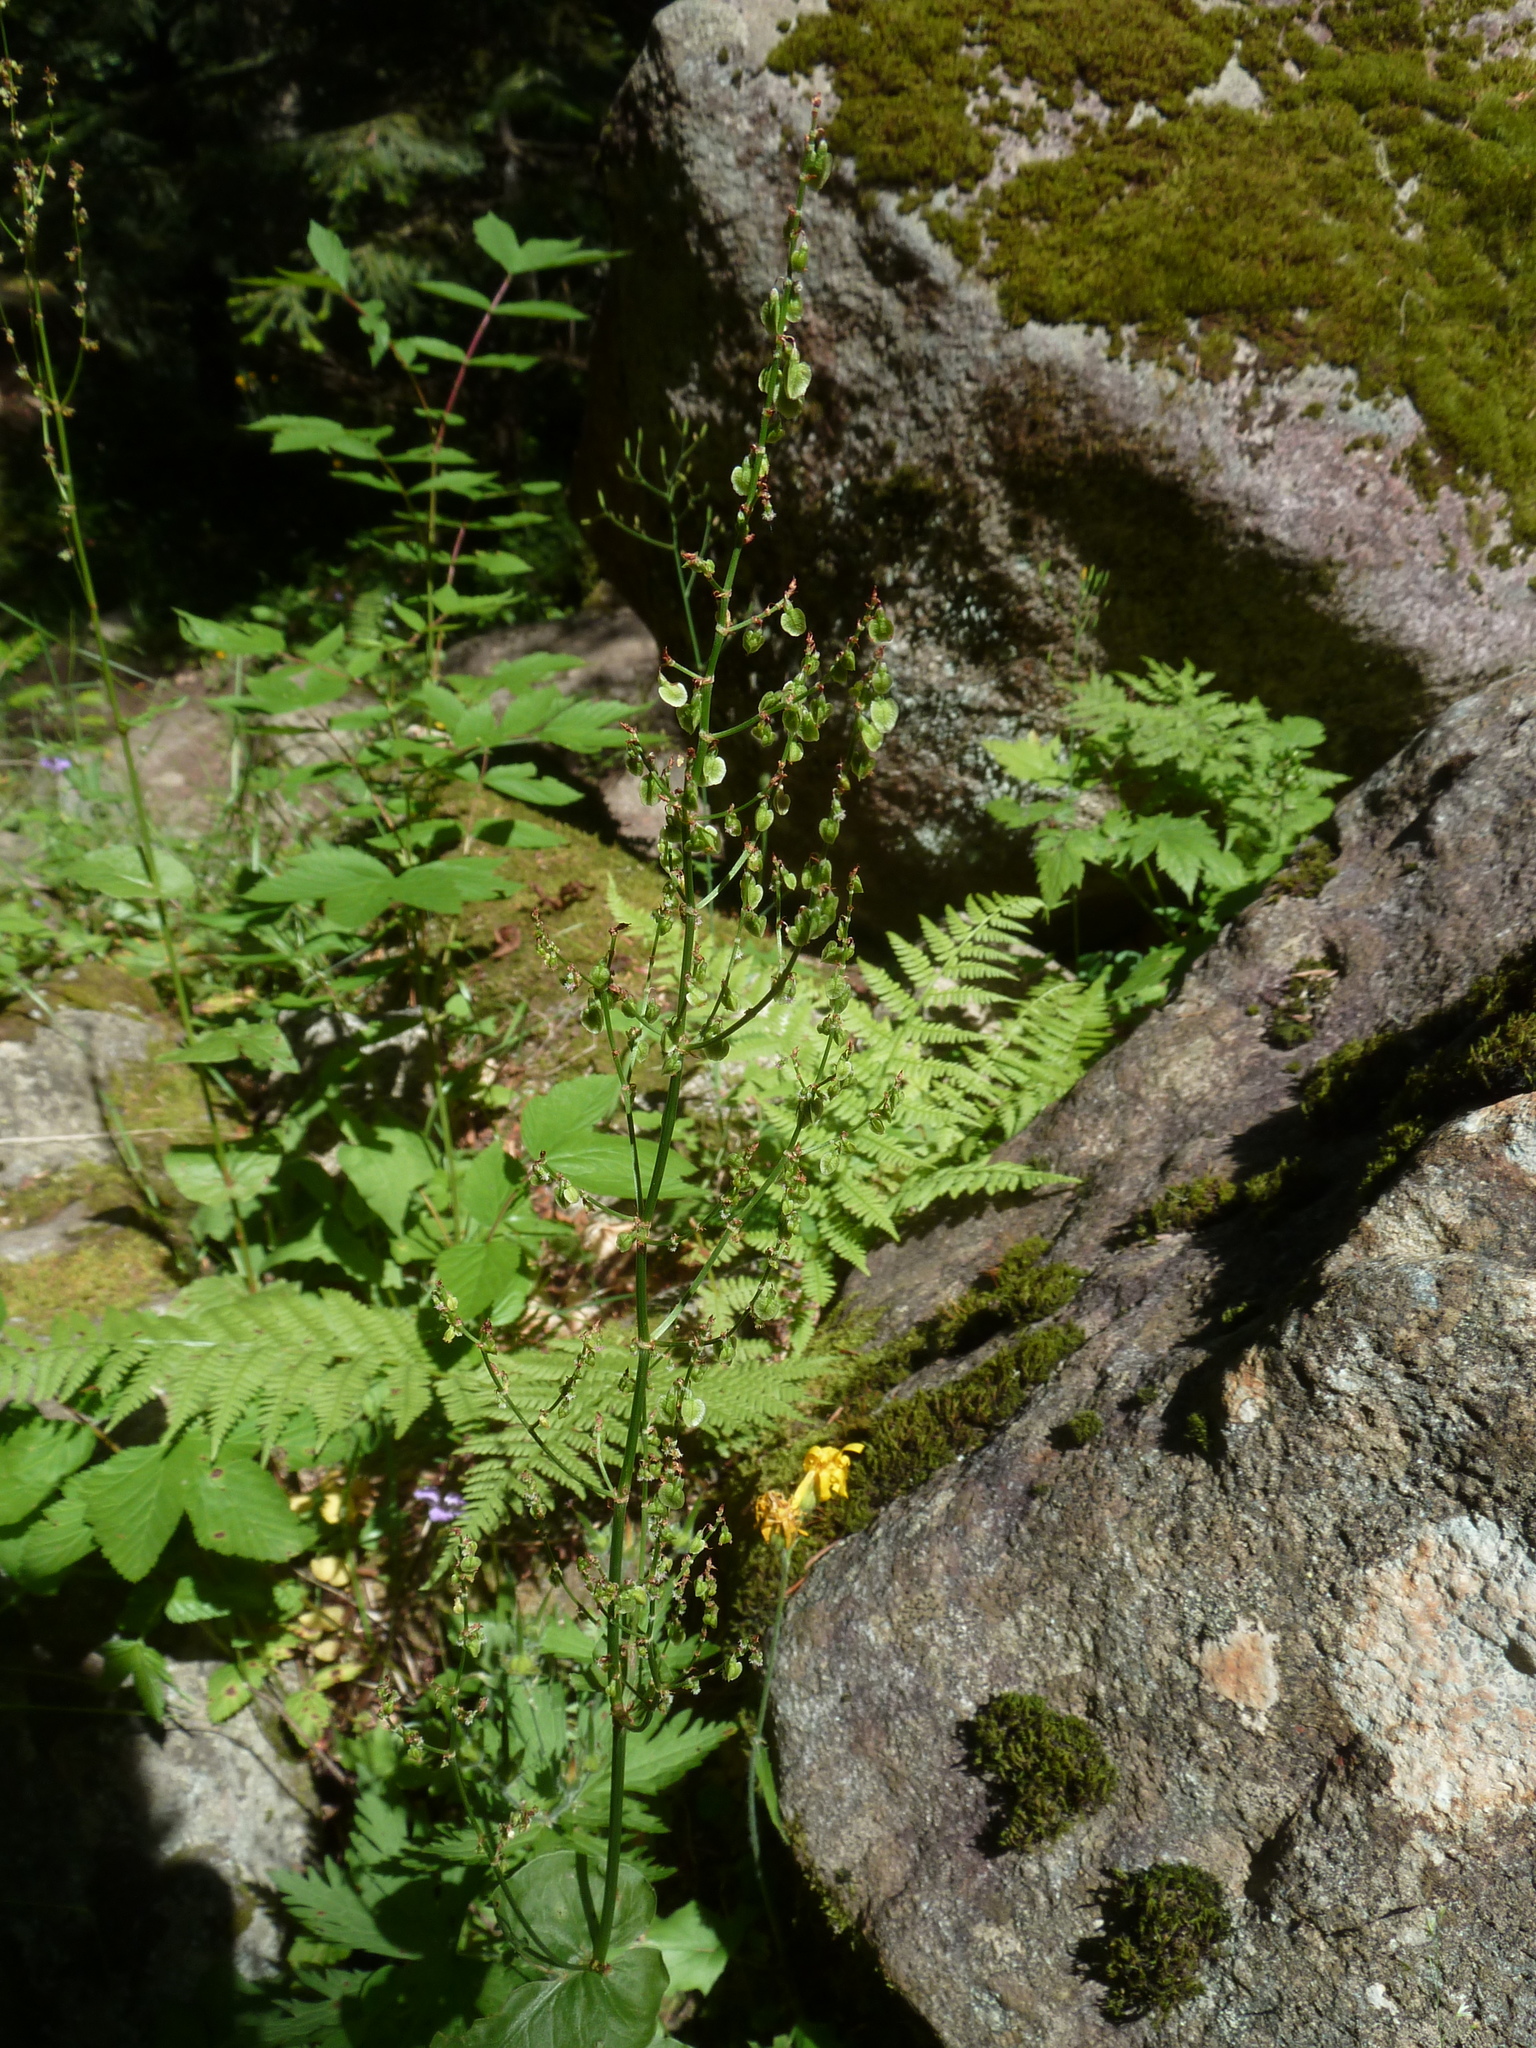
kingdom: Plantae
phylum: Tracheophyta
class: Magnoliopsida
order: Caryophyllales
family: Polygonaceae
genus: Rumex
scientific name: Rumex arifolius
